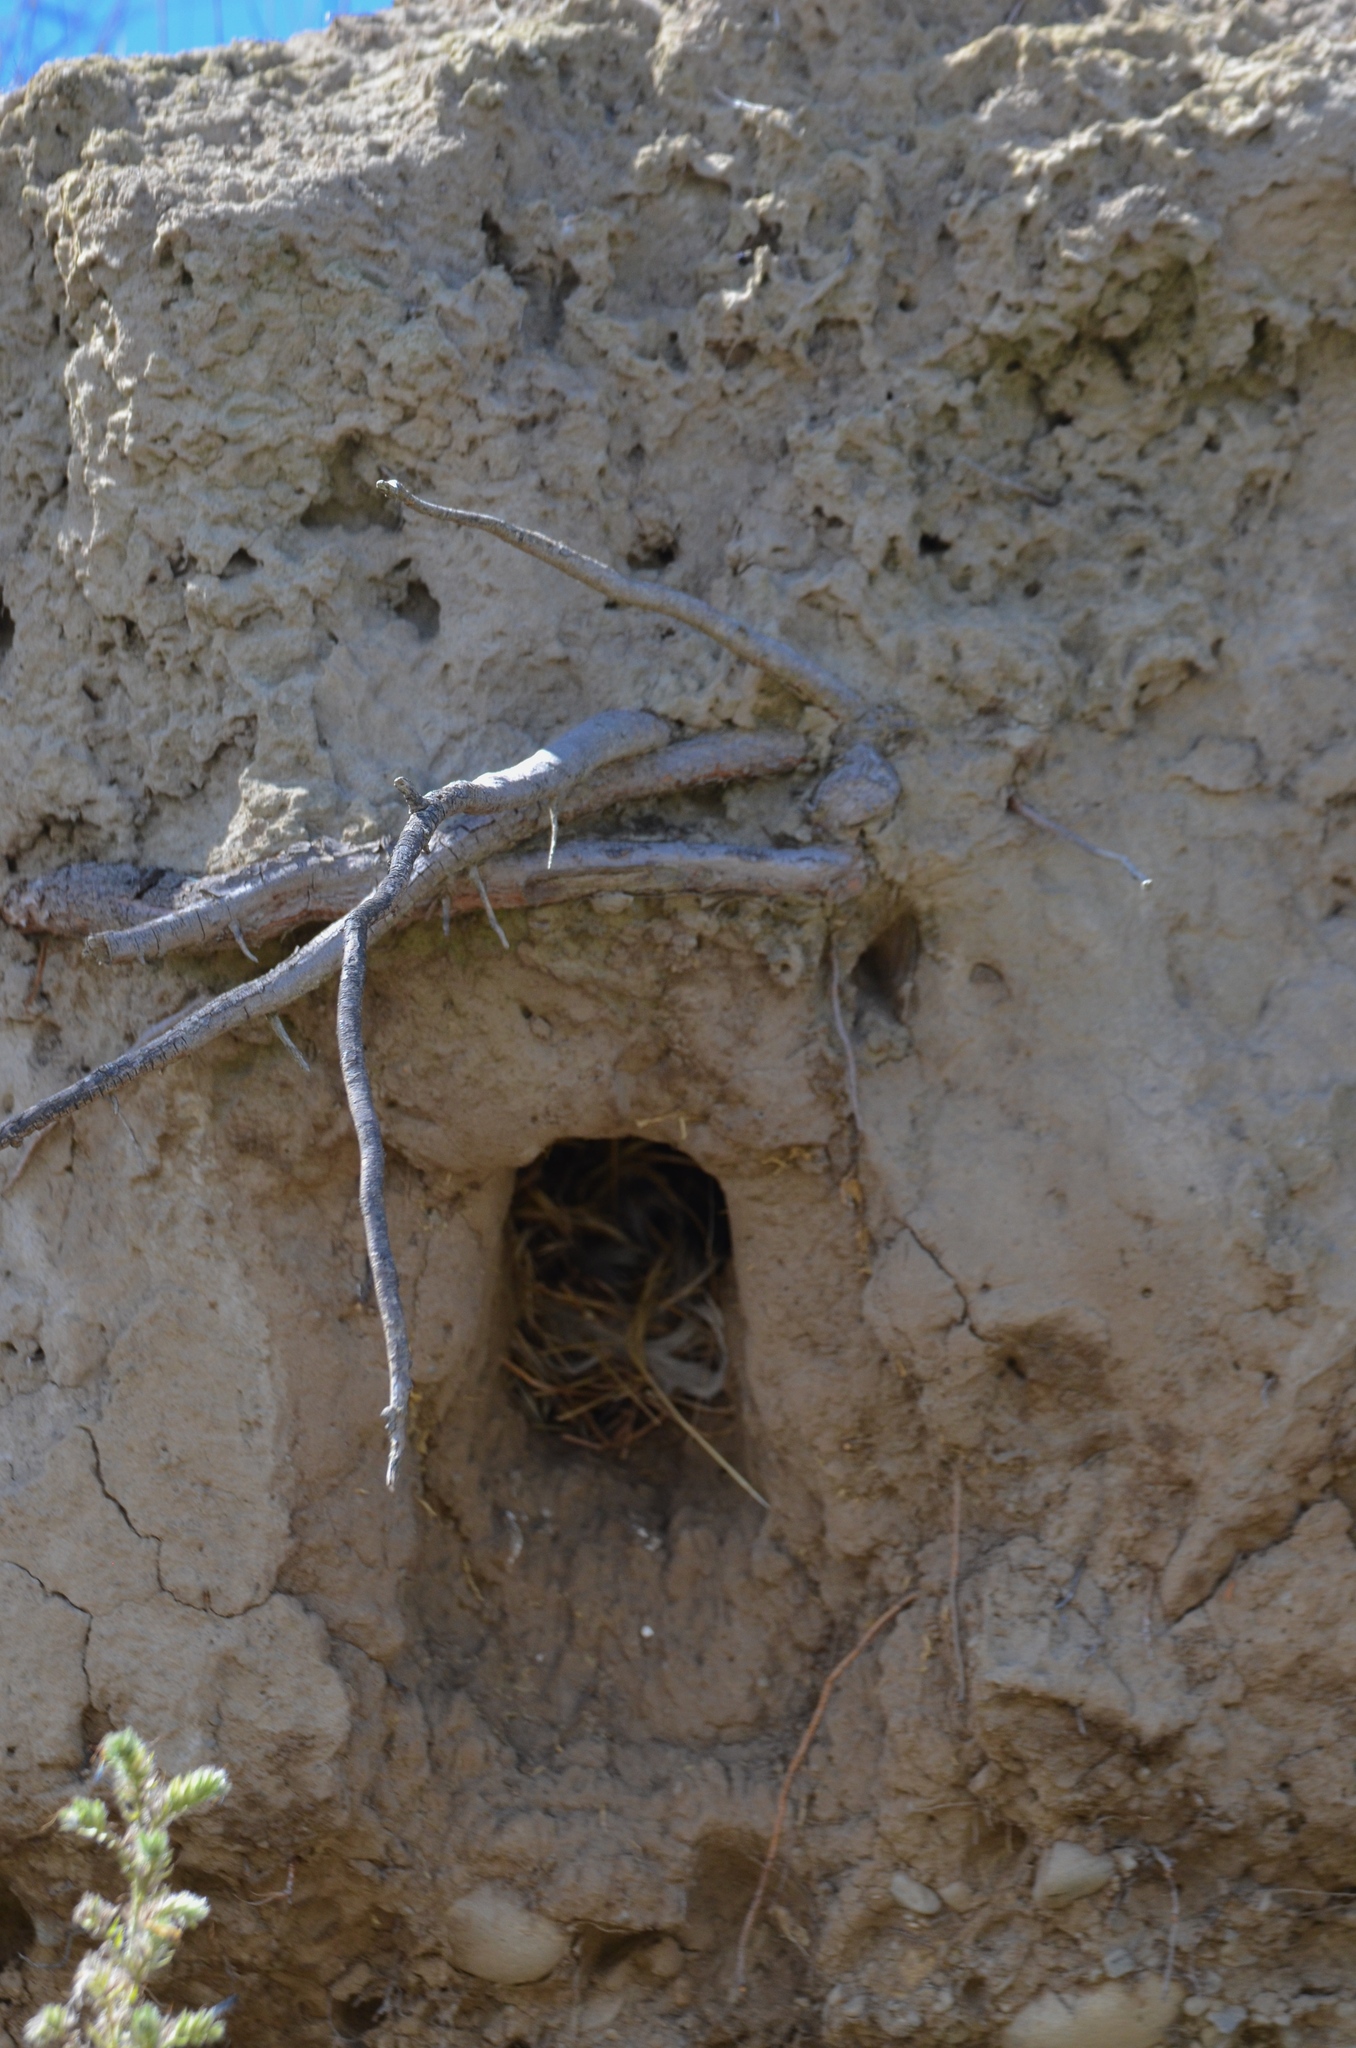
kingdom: Animalia
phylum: Chordata
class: Aves
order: Coraciiformes
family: Alcedinidae
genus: Todiramphus
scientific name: Todiramphus sanctus
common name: Sacred kingfisher
